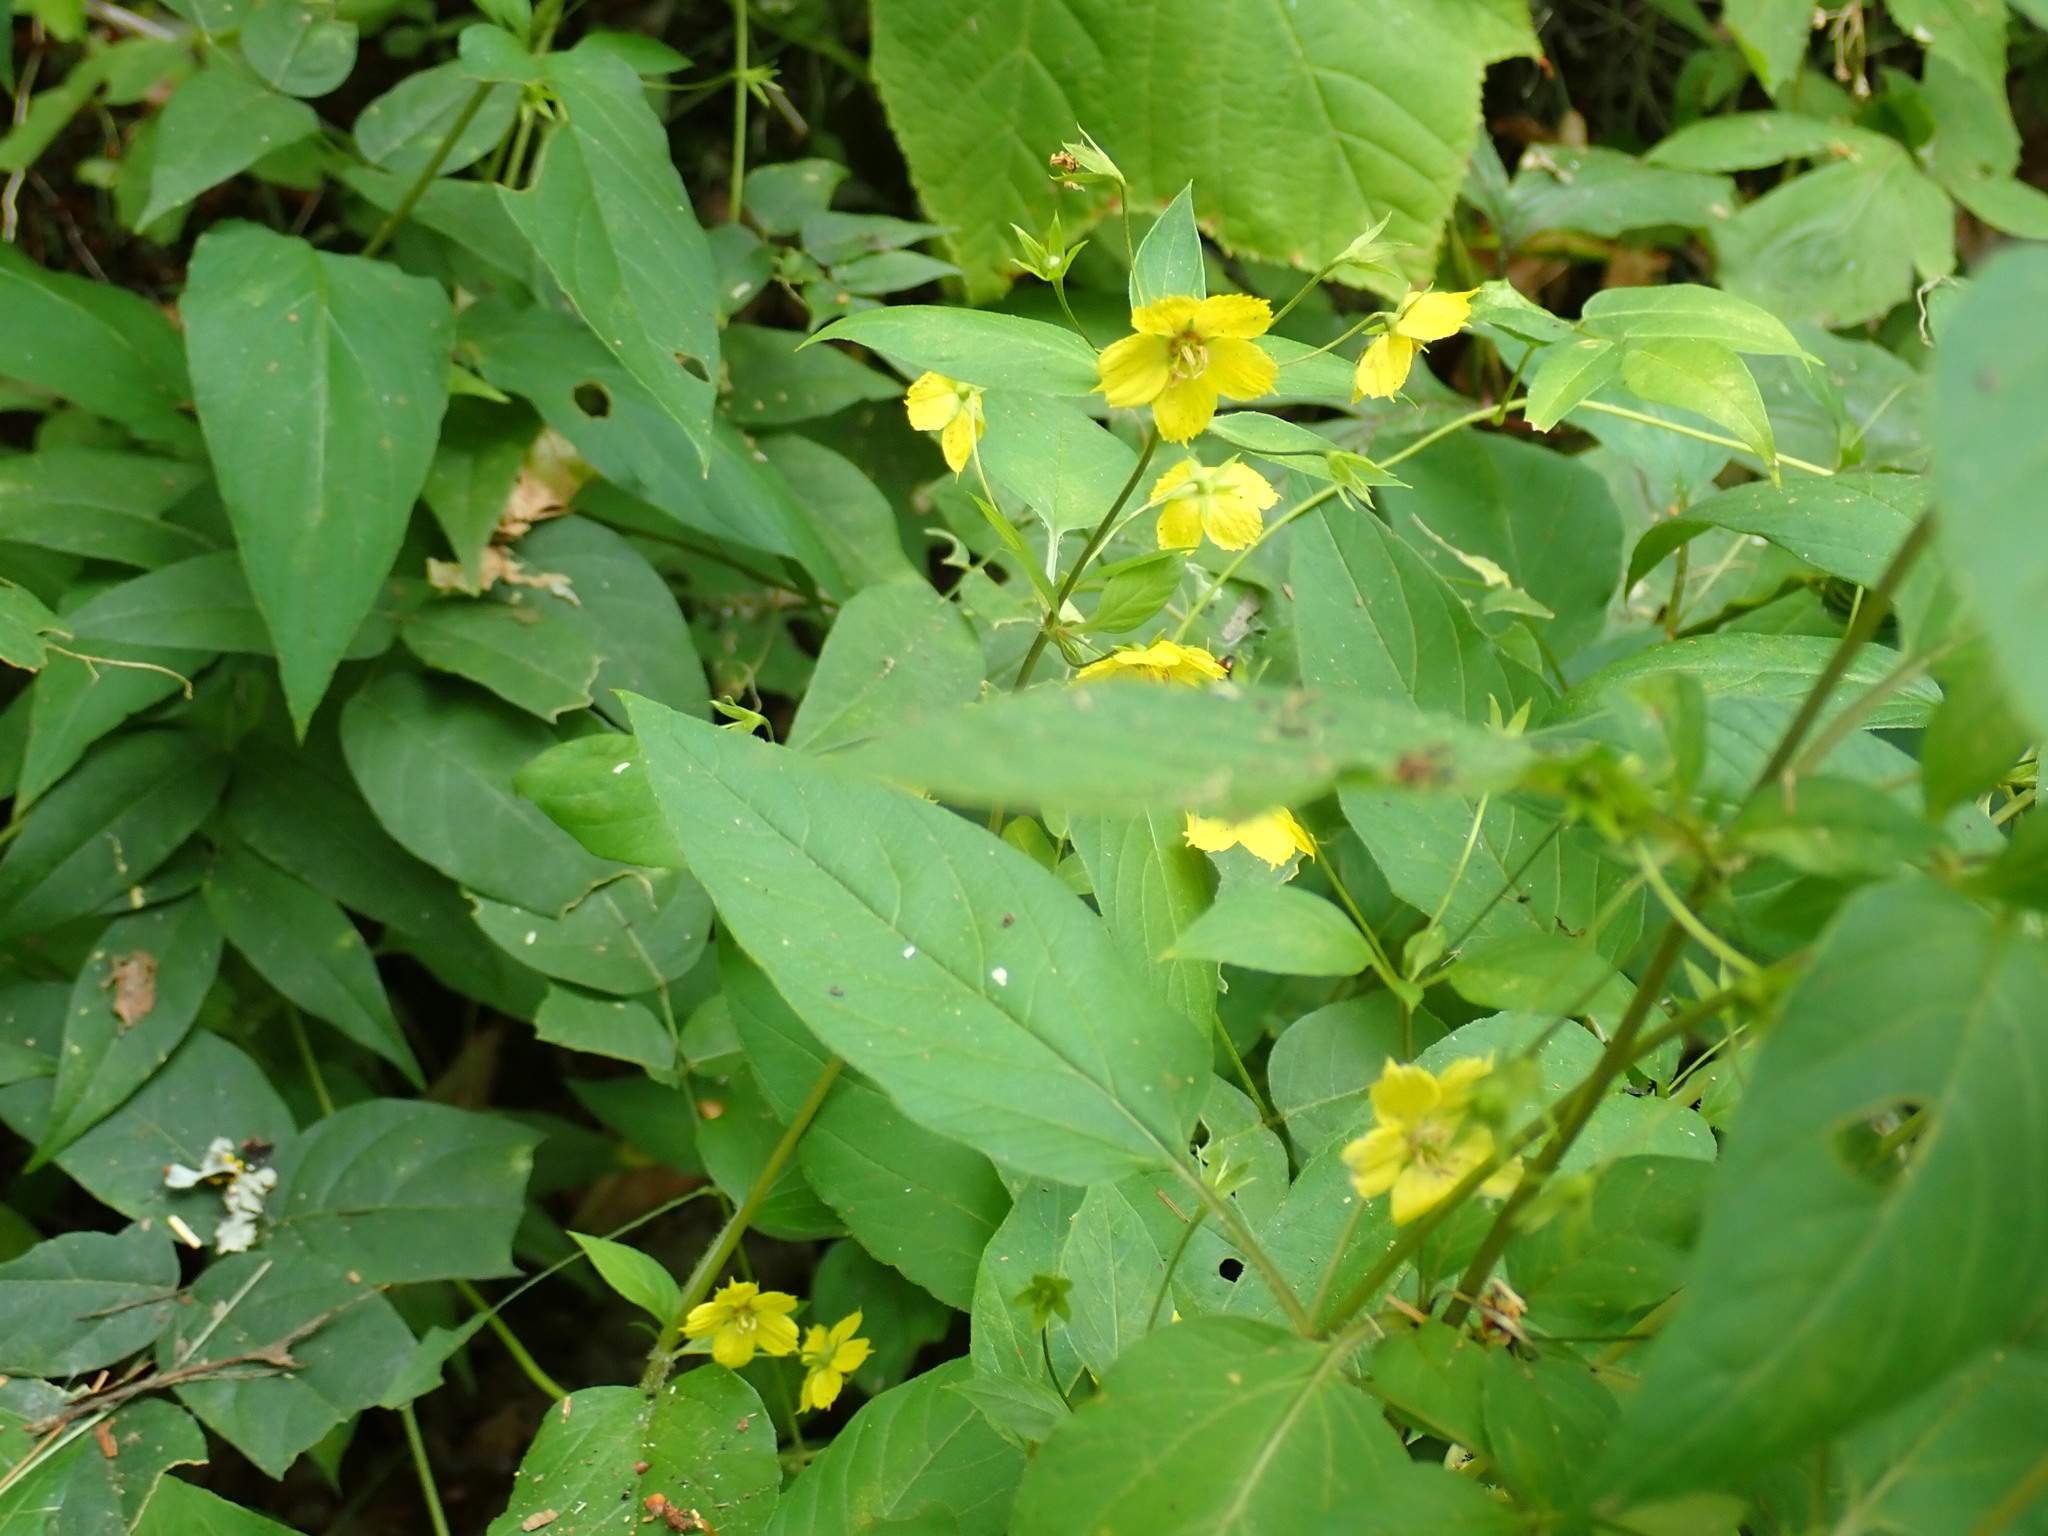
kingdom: Plantae
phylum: Tracheophyta
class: Magnoliopsida
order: Ericales
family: Primulaceae
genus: Lysimachia
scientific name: Lysimachia ciliata
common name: Fringed loosestrife
